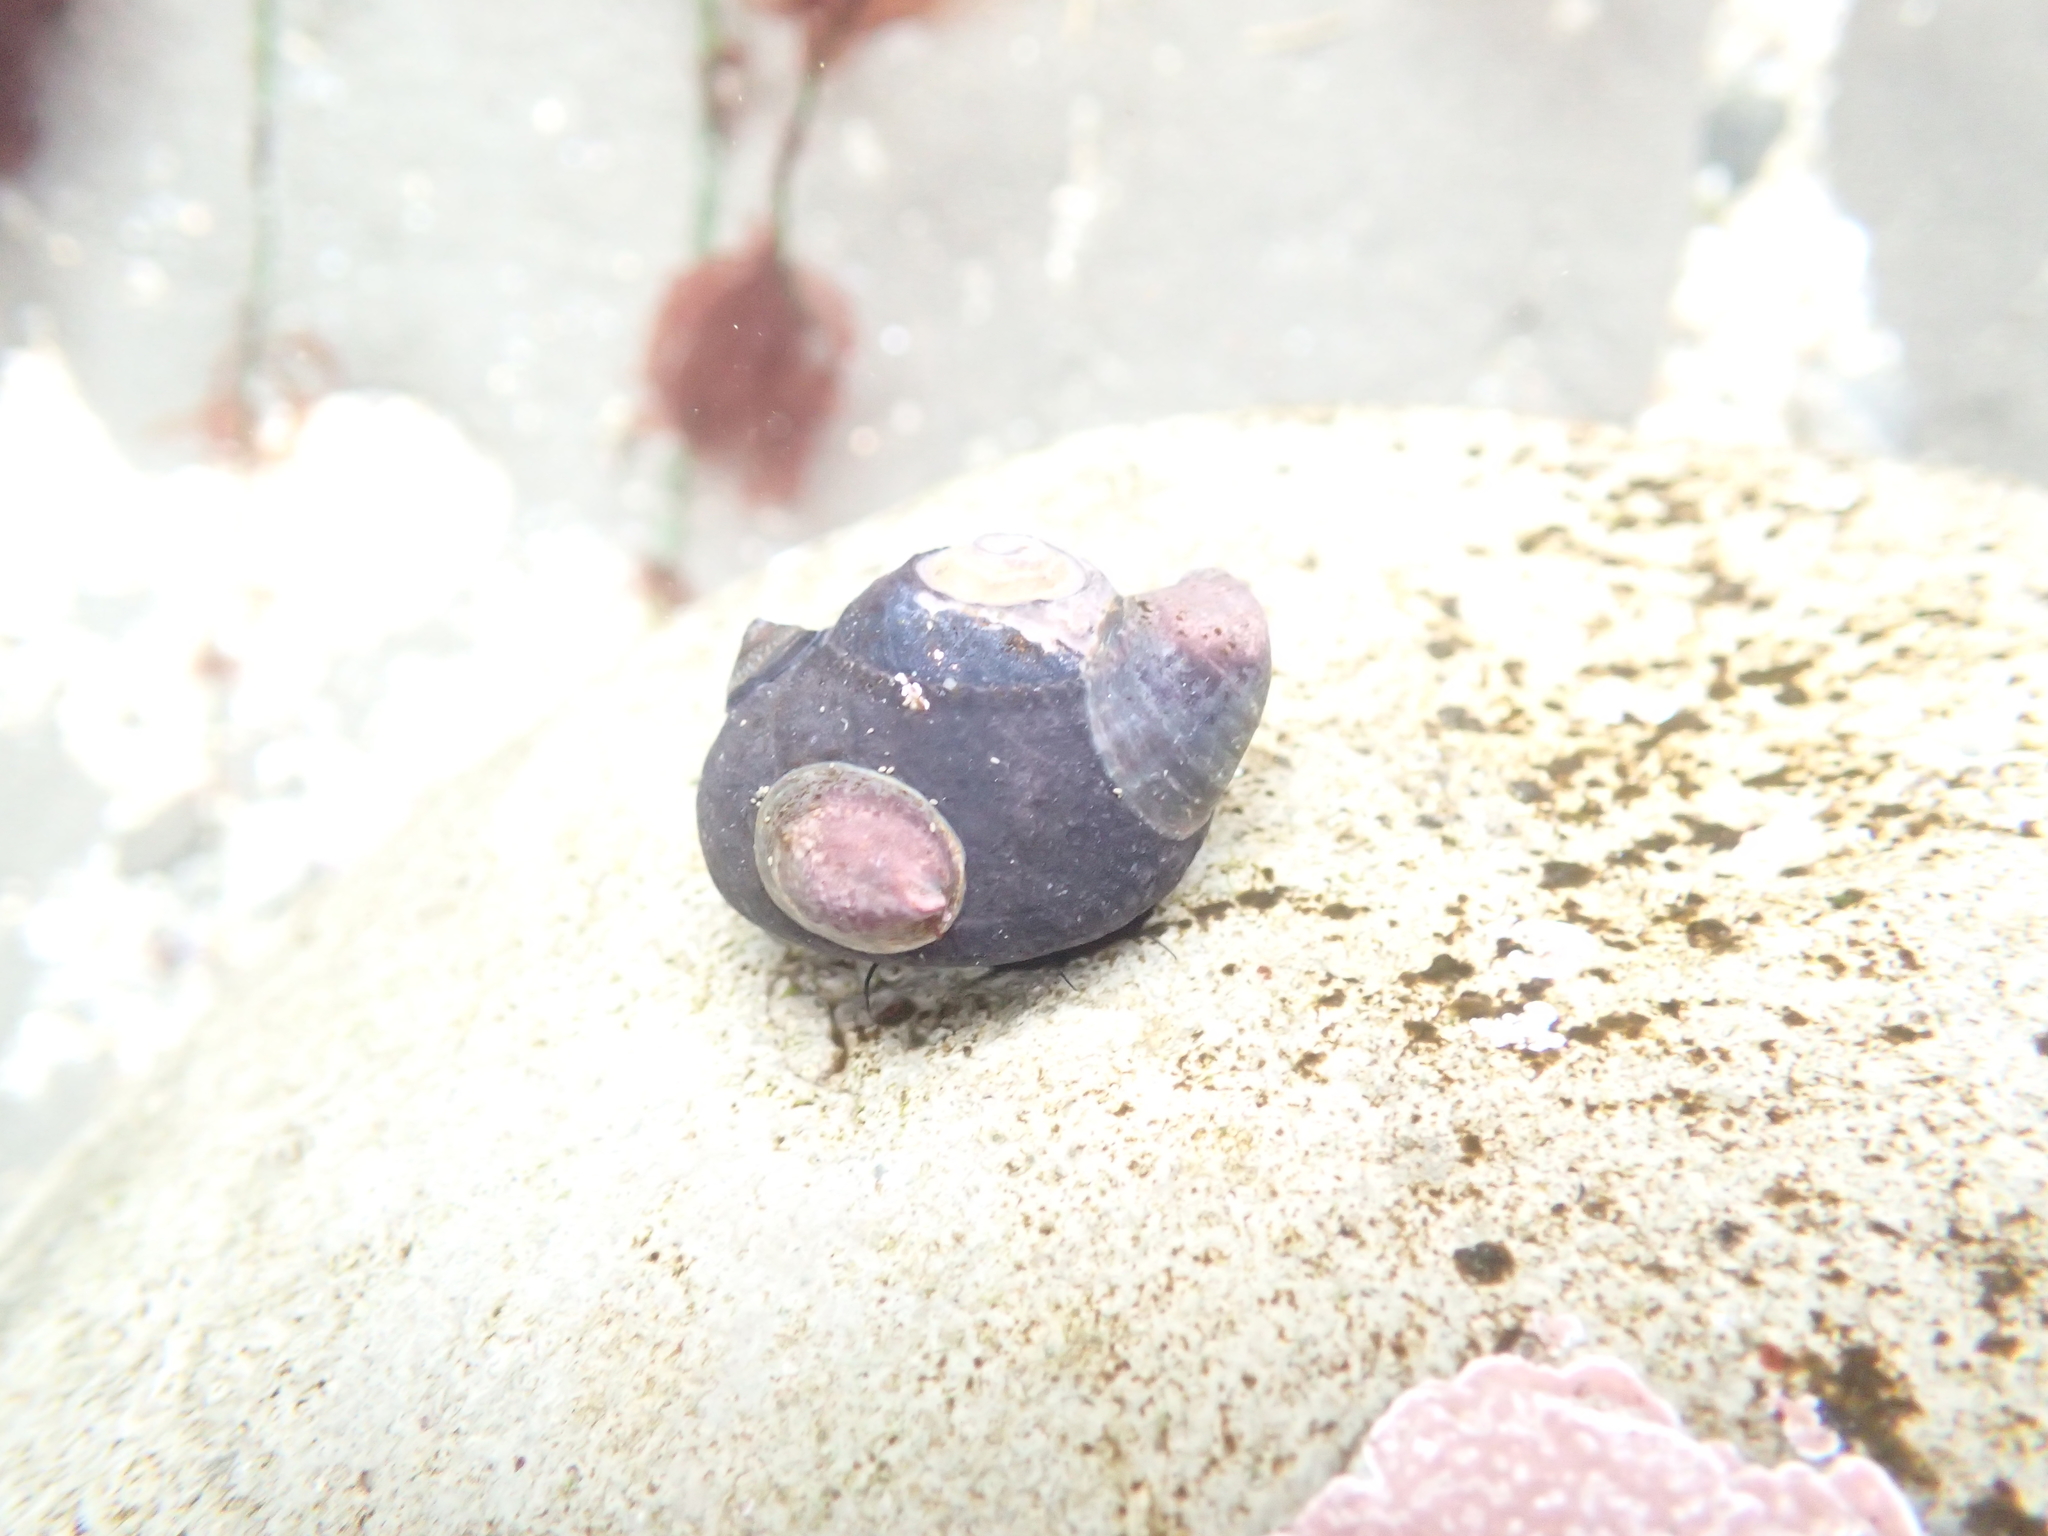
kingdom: Animalia
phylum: Mollusca
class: Gastropoda
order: Trochida
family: Tegulidae
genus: Tegula
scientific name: Tegula funebralis
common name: Black tegula
